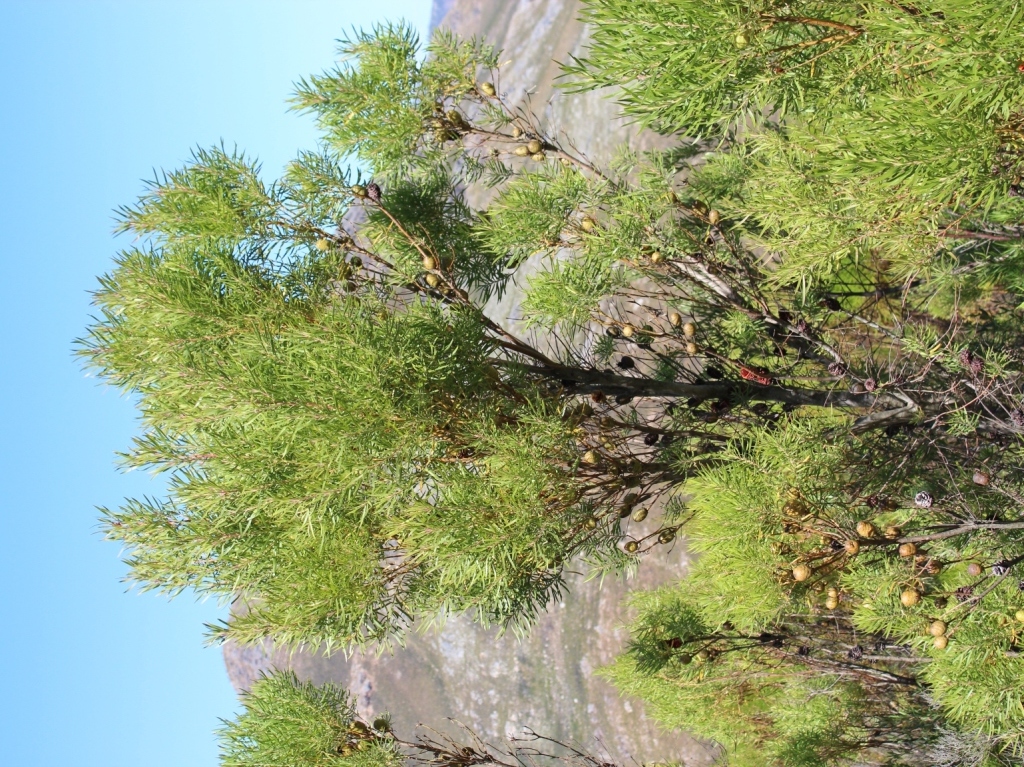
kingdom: Plantae
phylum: Tracheophyta
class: Magnoliopsida
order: Proteales
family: Proteaceae
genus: Leucadendron
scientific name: Leucadendron salicifolium
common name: Common stream conebush
